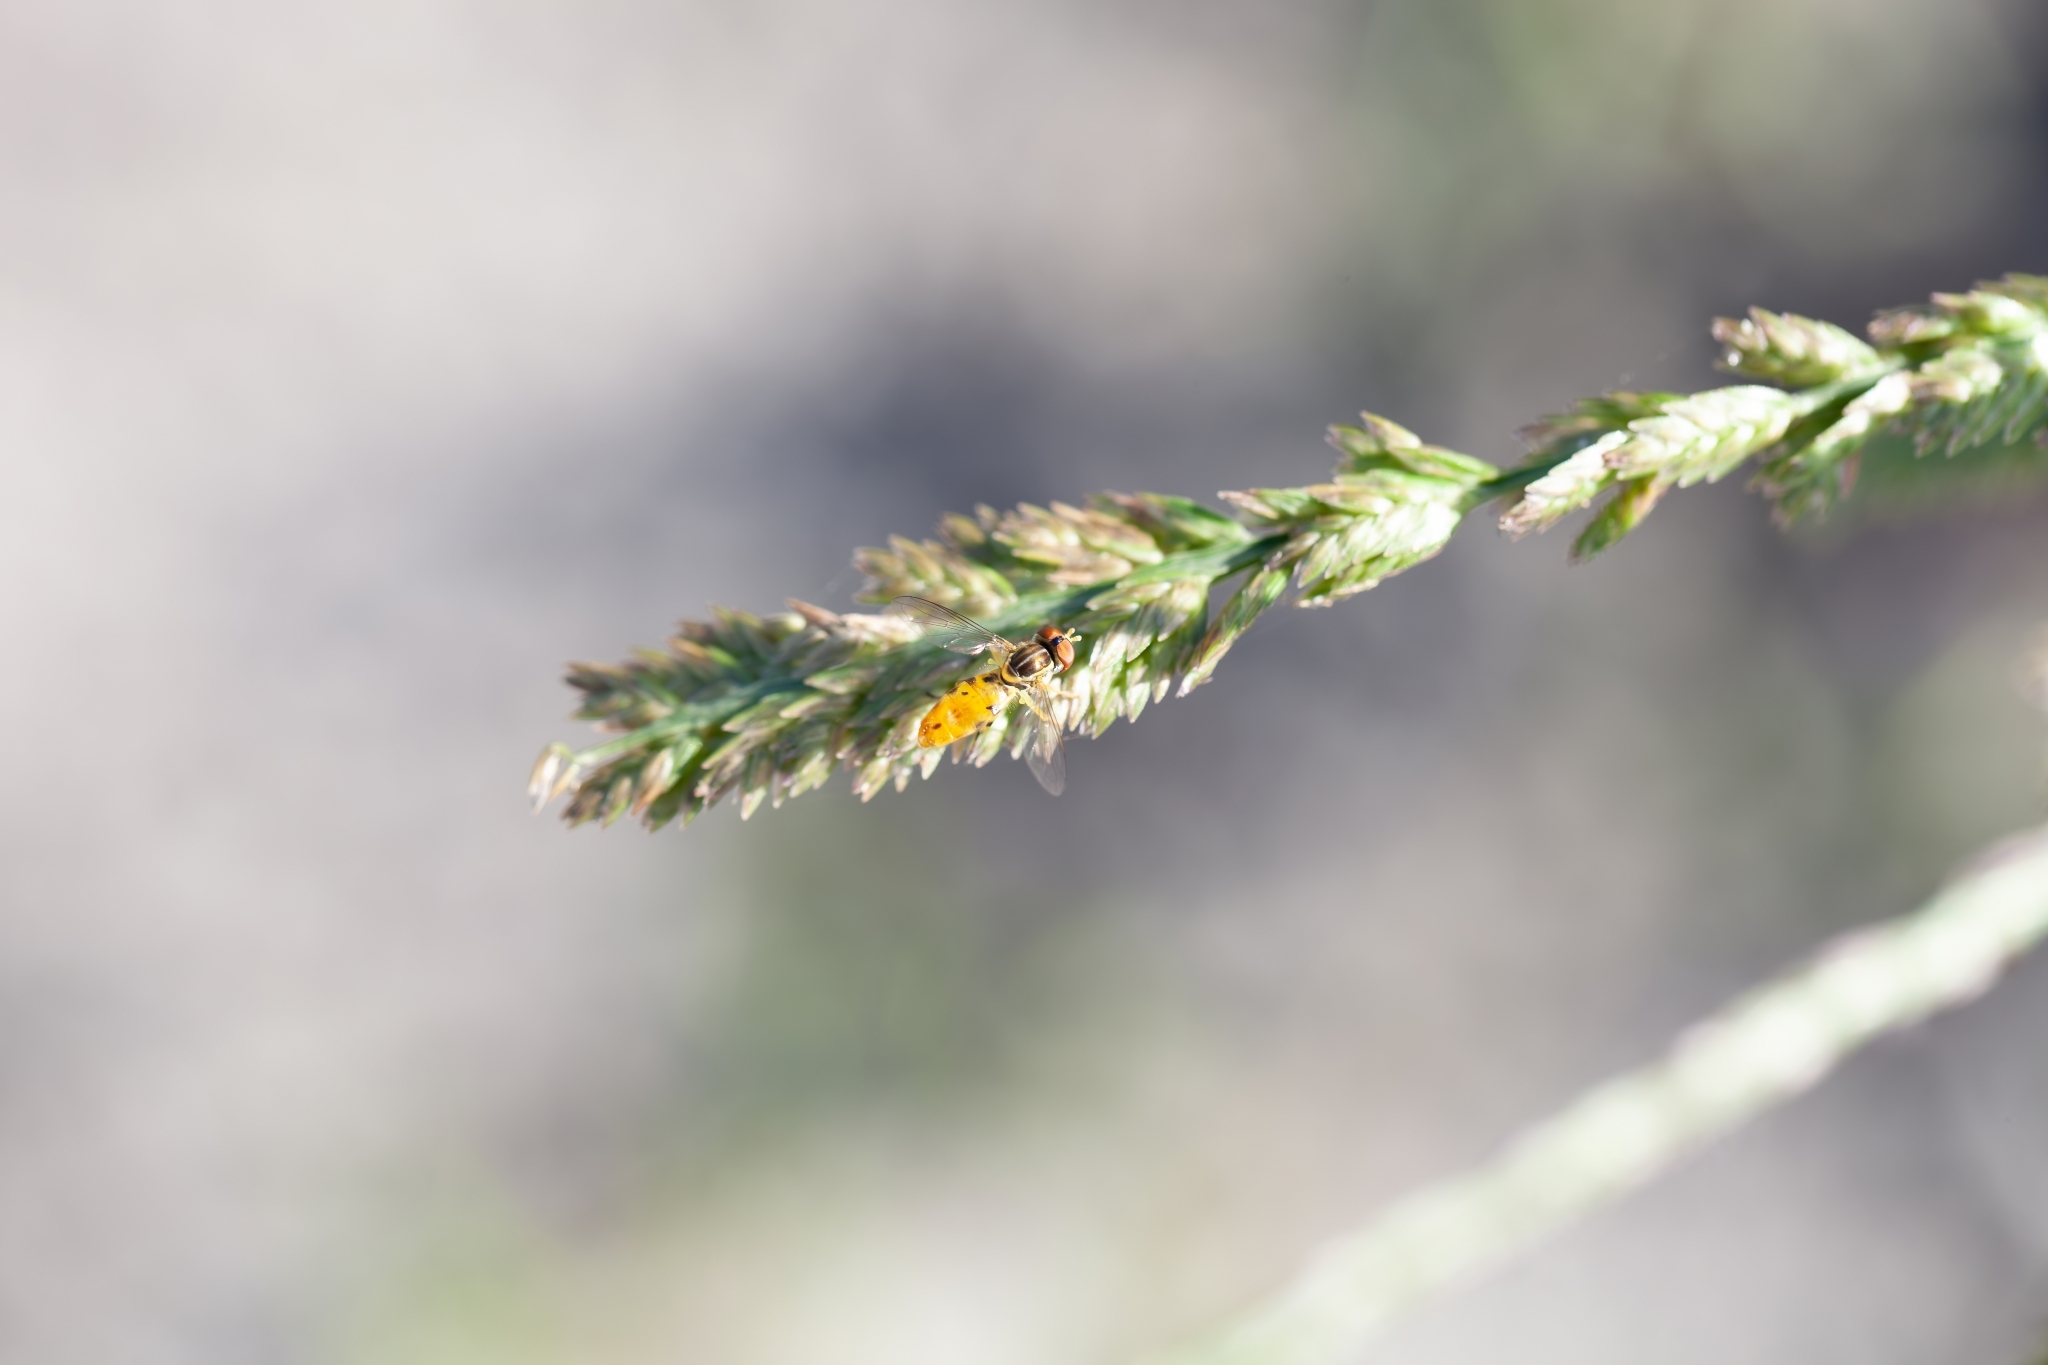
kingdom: Animalia
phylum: Arthropoda
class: Insecta
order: Diptera
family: Syrphidae
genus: Toxomerus
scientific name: Toxomerus floralis
